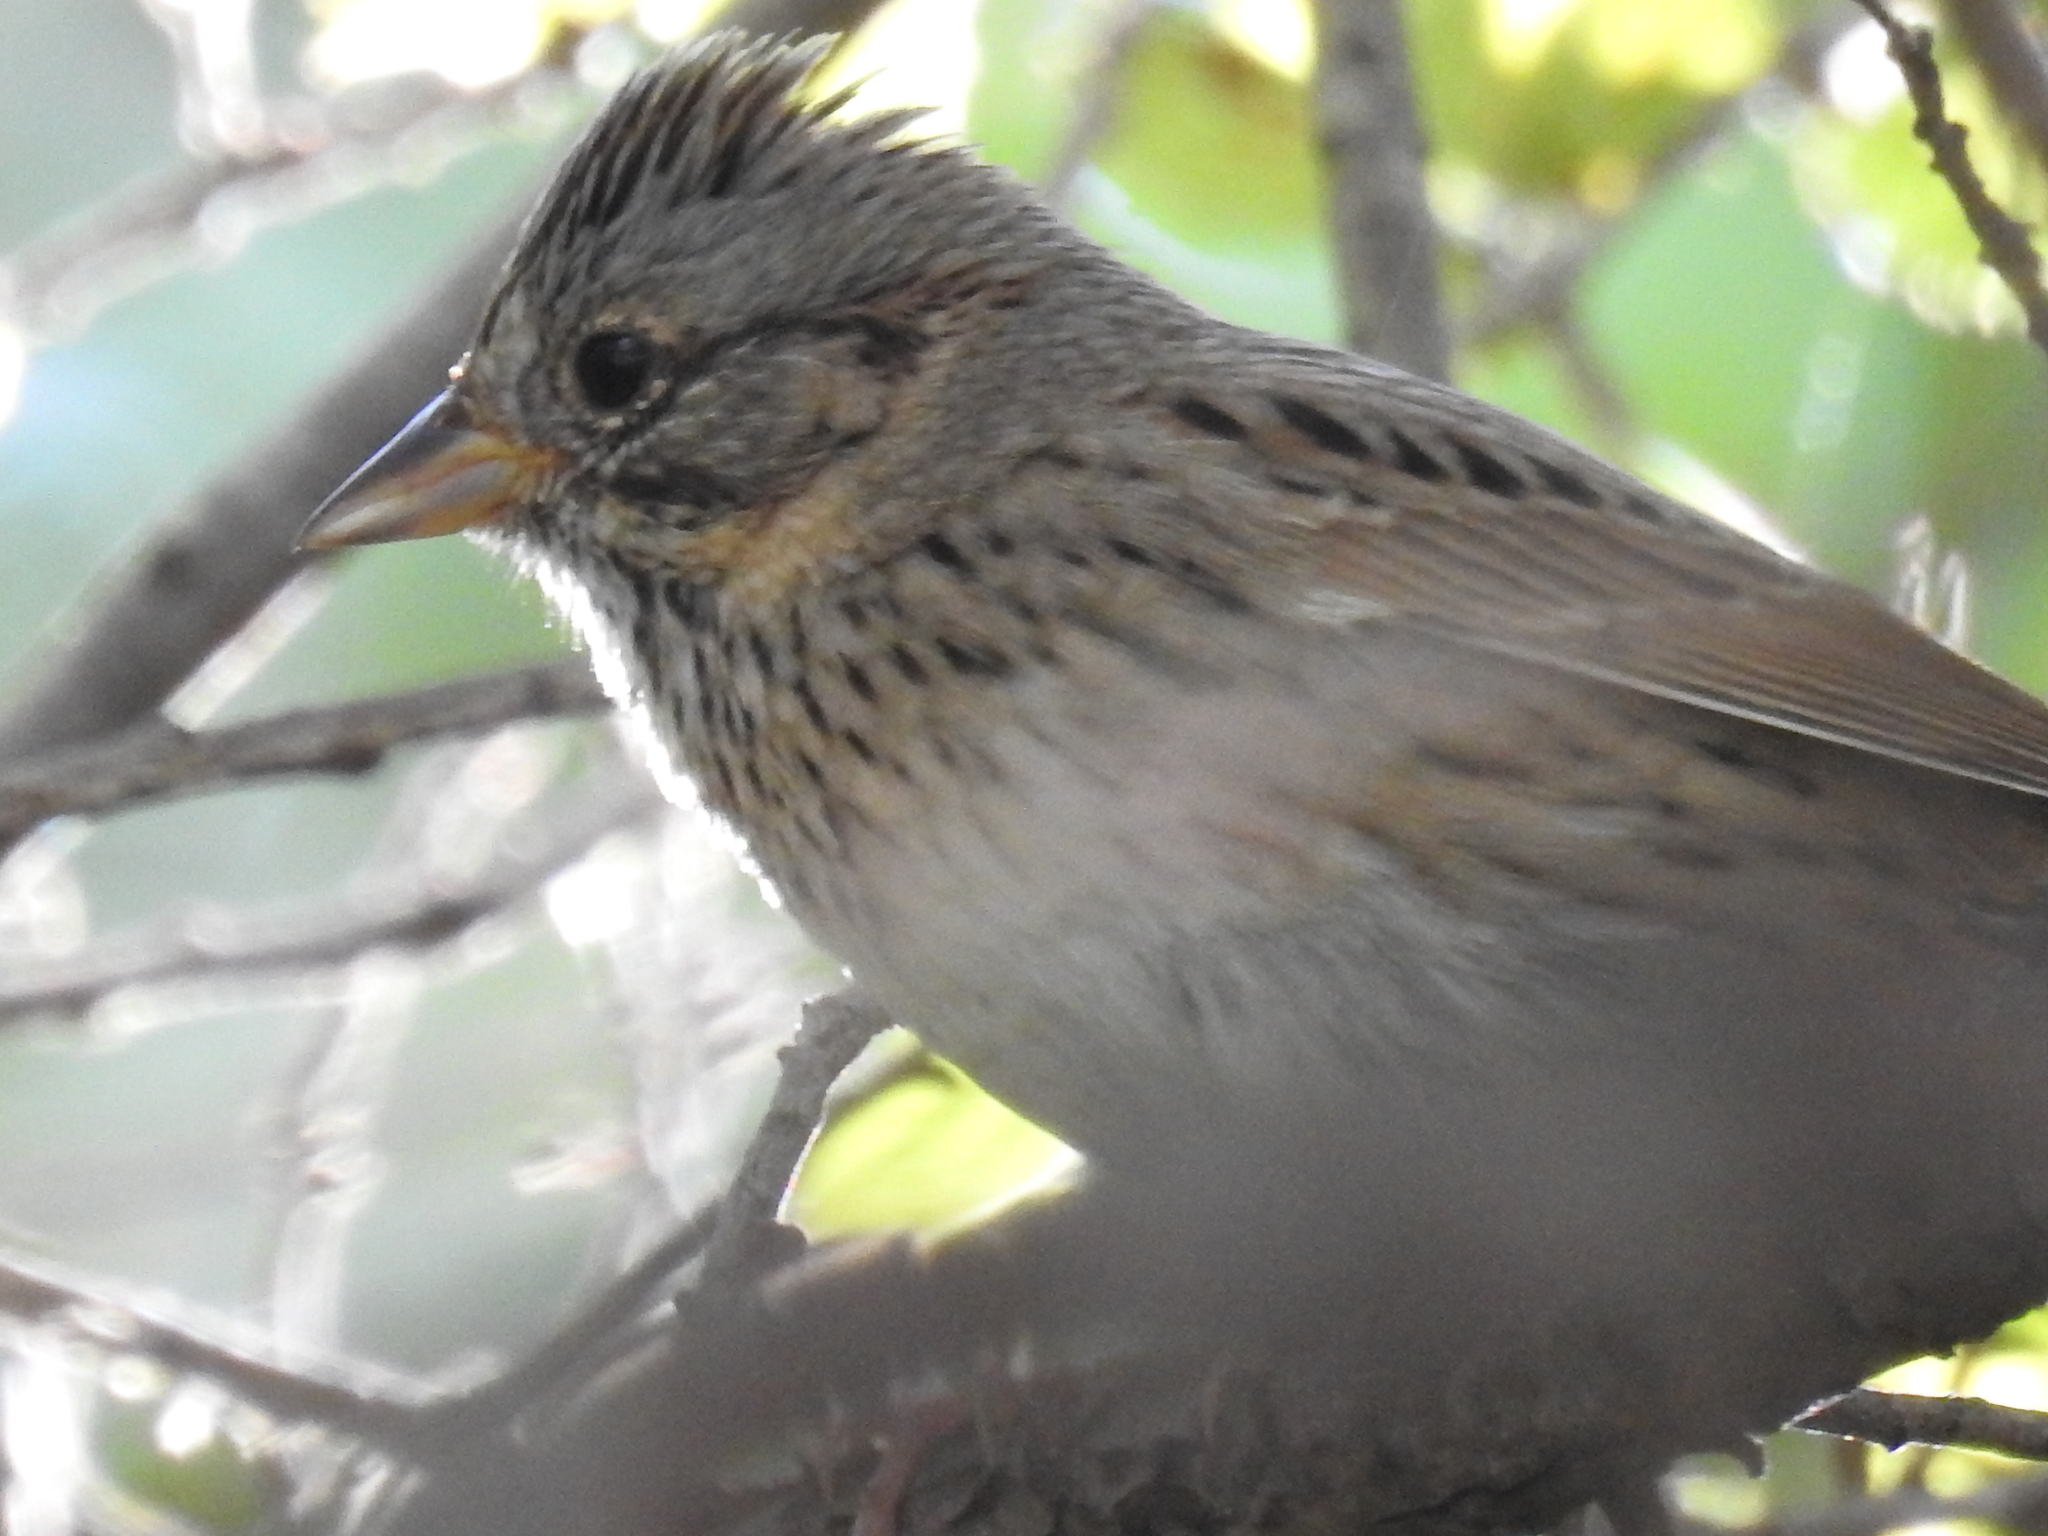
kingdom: Animalia
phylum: Chordata
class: Aves
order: Passeriformes
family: Passerellidae
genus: Melospiza
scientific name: Melospiza lincolnii
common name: Lincoln's sparrow
